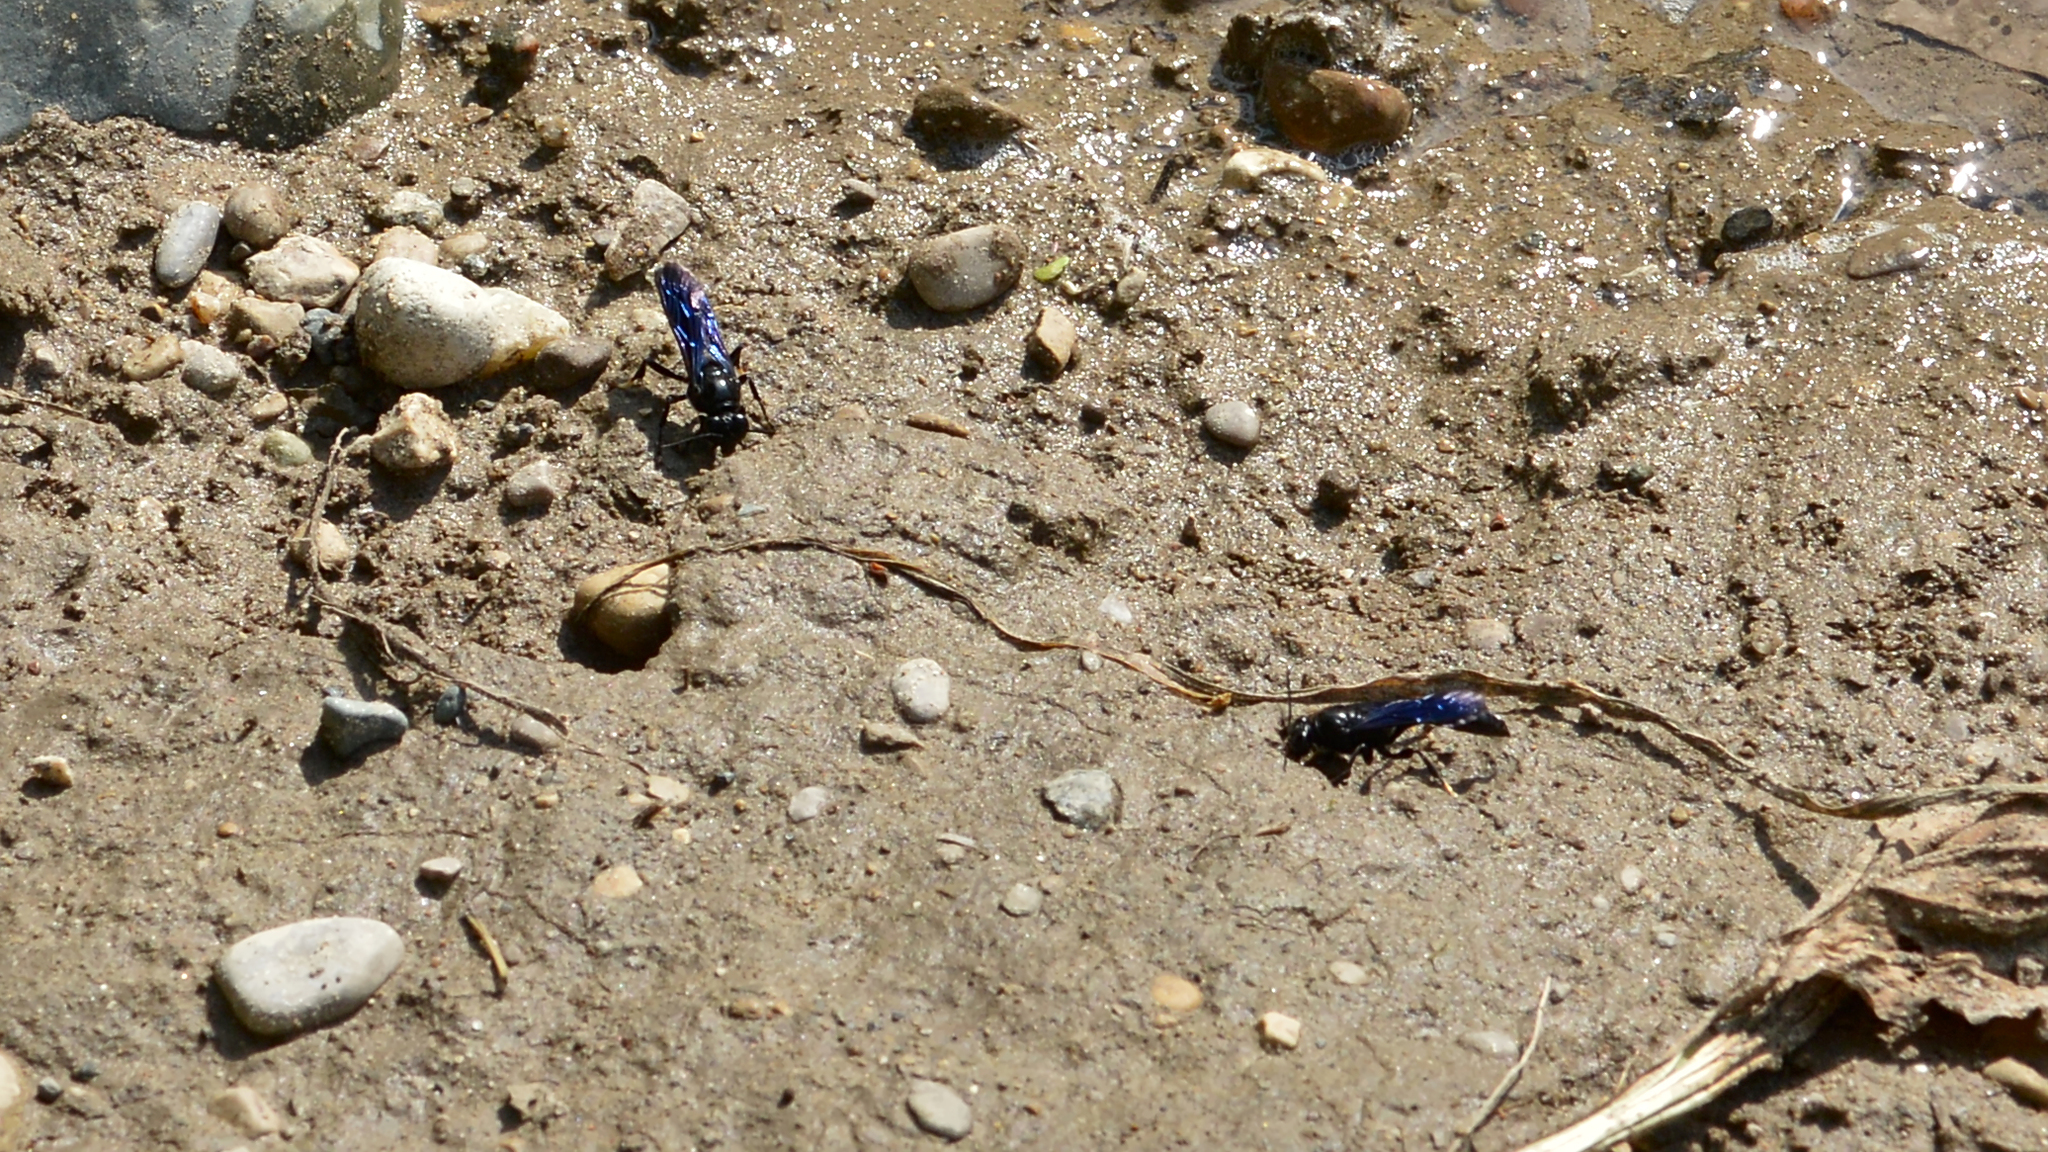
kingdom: Animalia
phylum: Arthropoda
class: Insecta
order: Hymenoptera
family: Crabronidae
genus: Trypoxylon
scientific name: Trypoxylon politum
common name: Organ-pipe mud-dauber wasp
